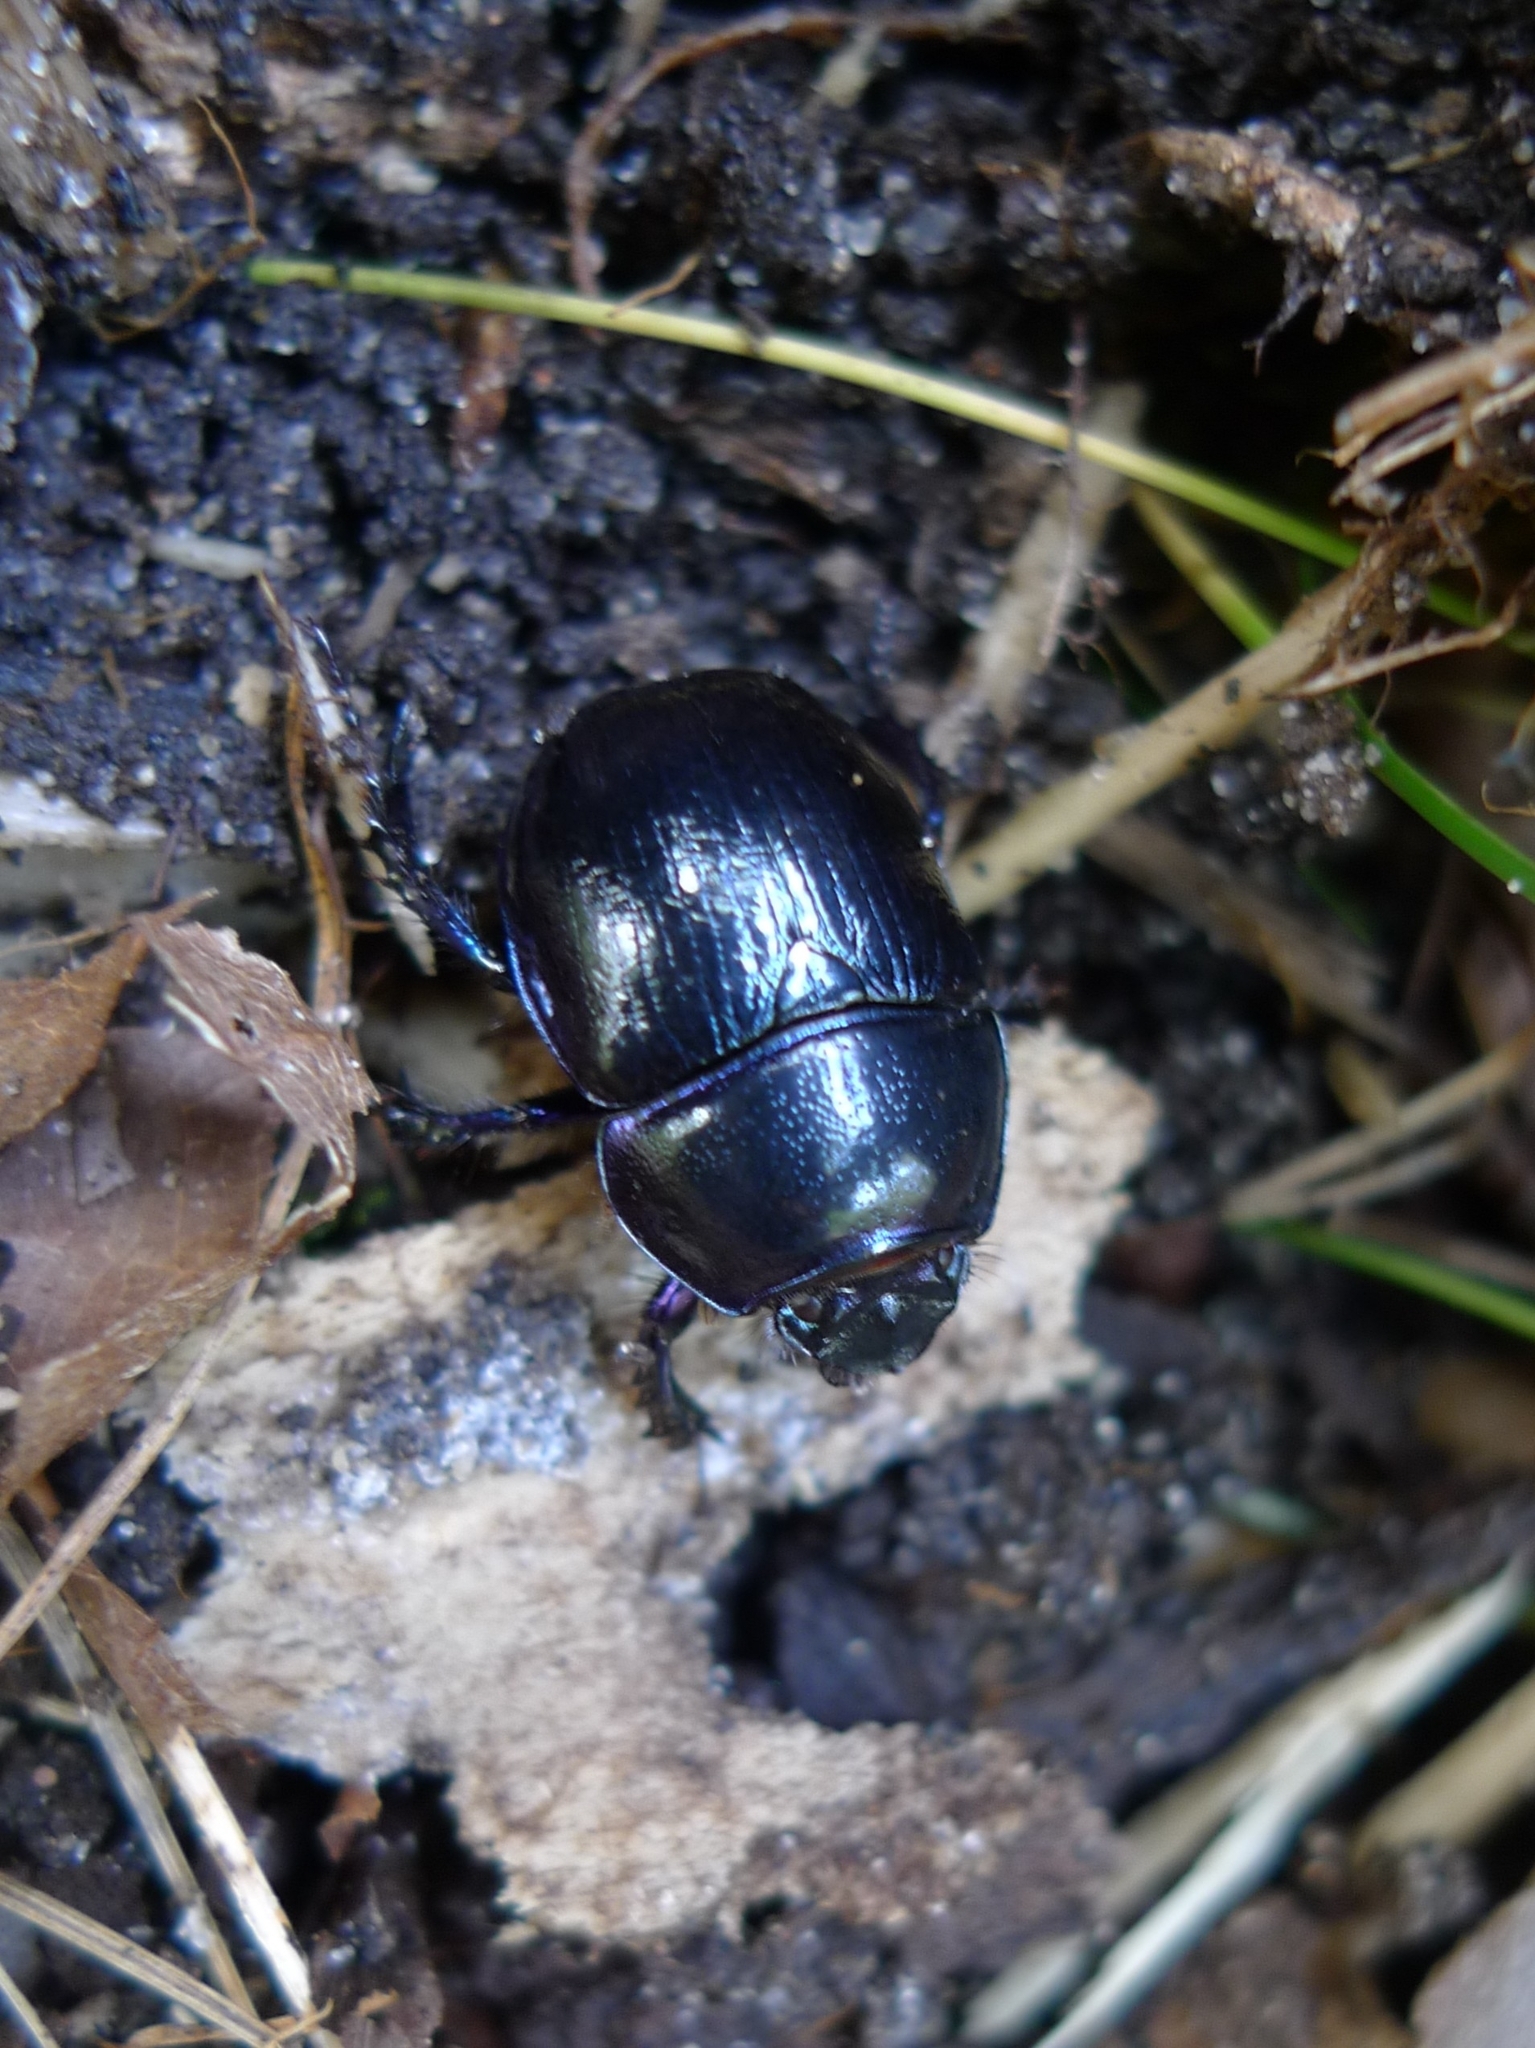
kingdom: Animalia
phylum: Arthropoda
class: Insecta
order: Coleoptera
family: Geotrupidae
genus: Anoplotrupes
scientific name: Anoplotrupes stercorosus
